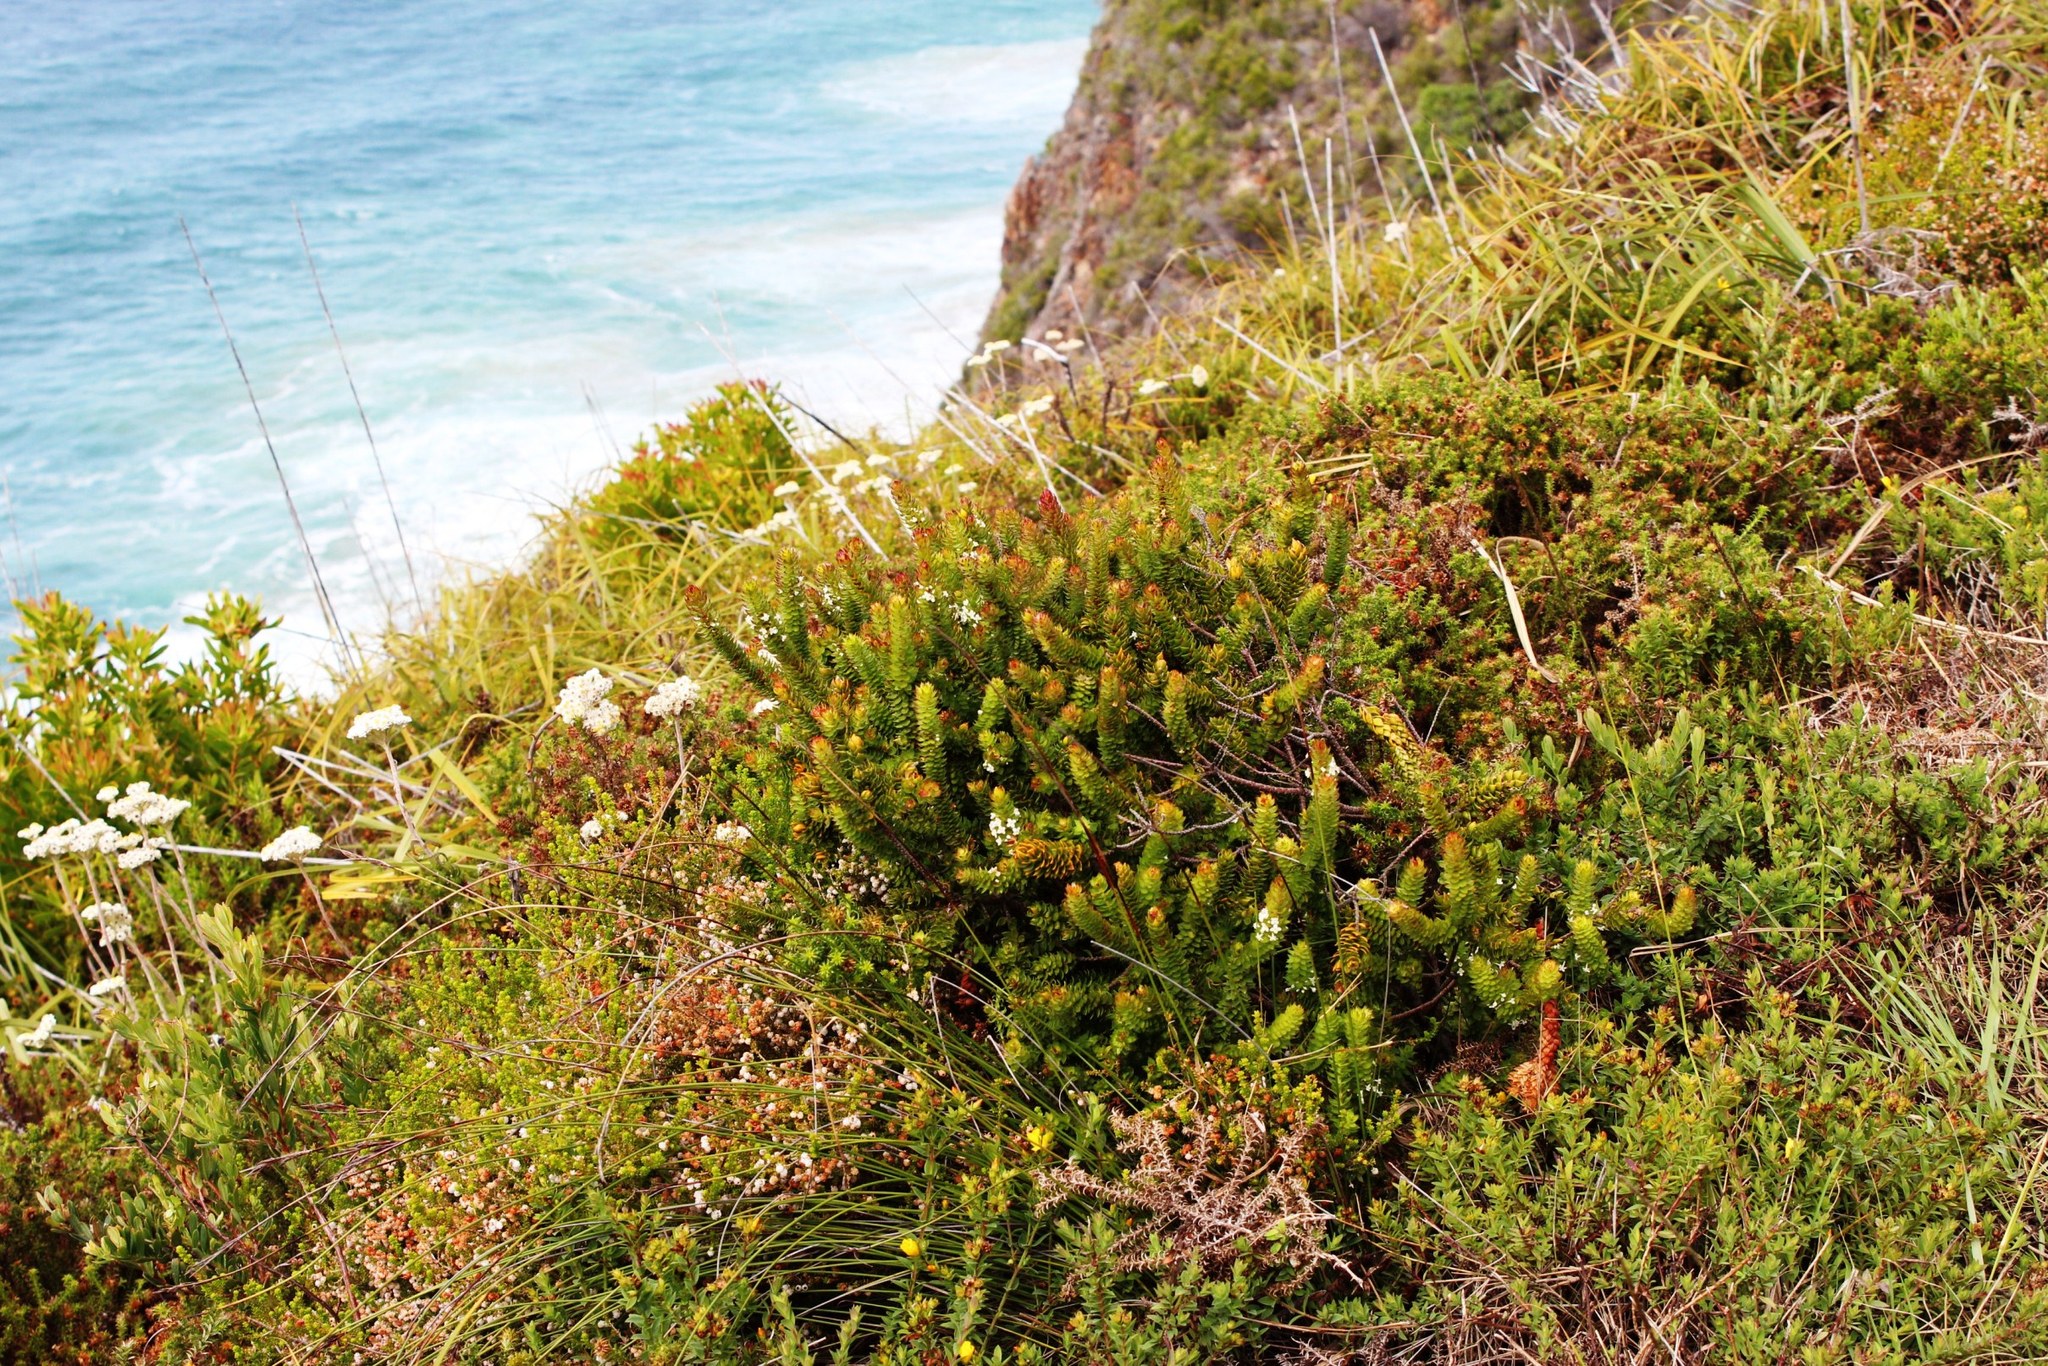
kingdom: Plantae
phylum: Tracheophyta
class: Magnoliopsida
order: Malvales
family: Thymelaeaceae
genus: Struthiola
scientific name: Struthiola hirsuta
